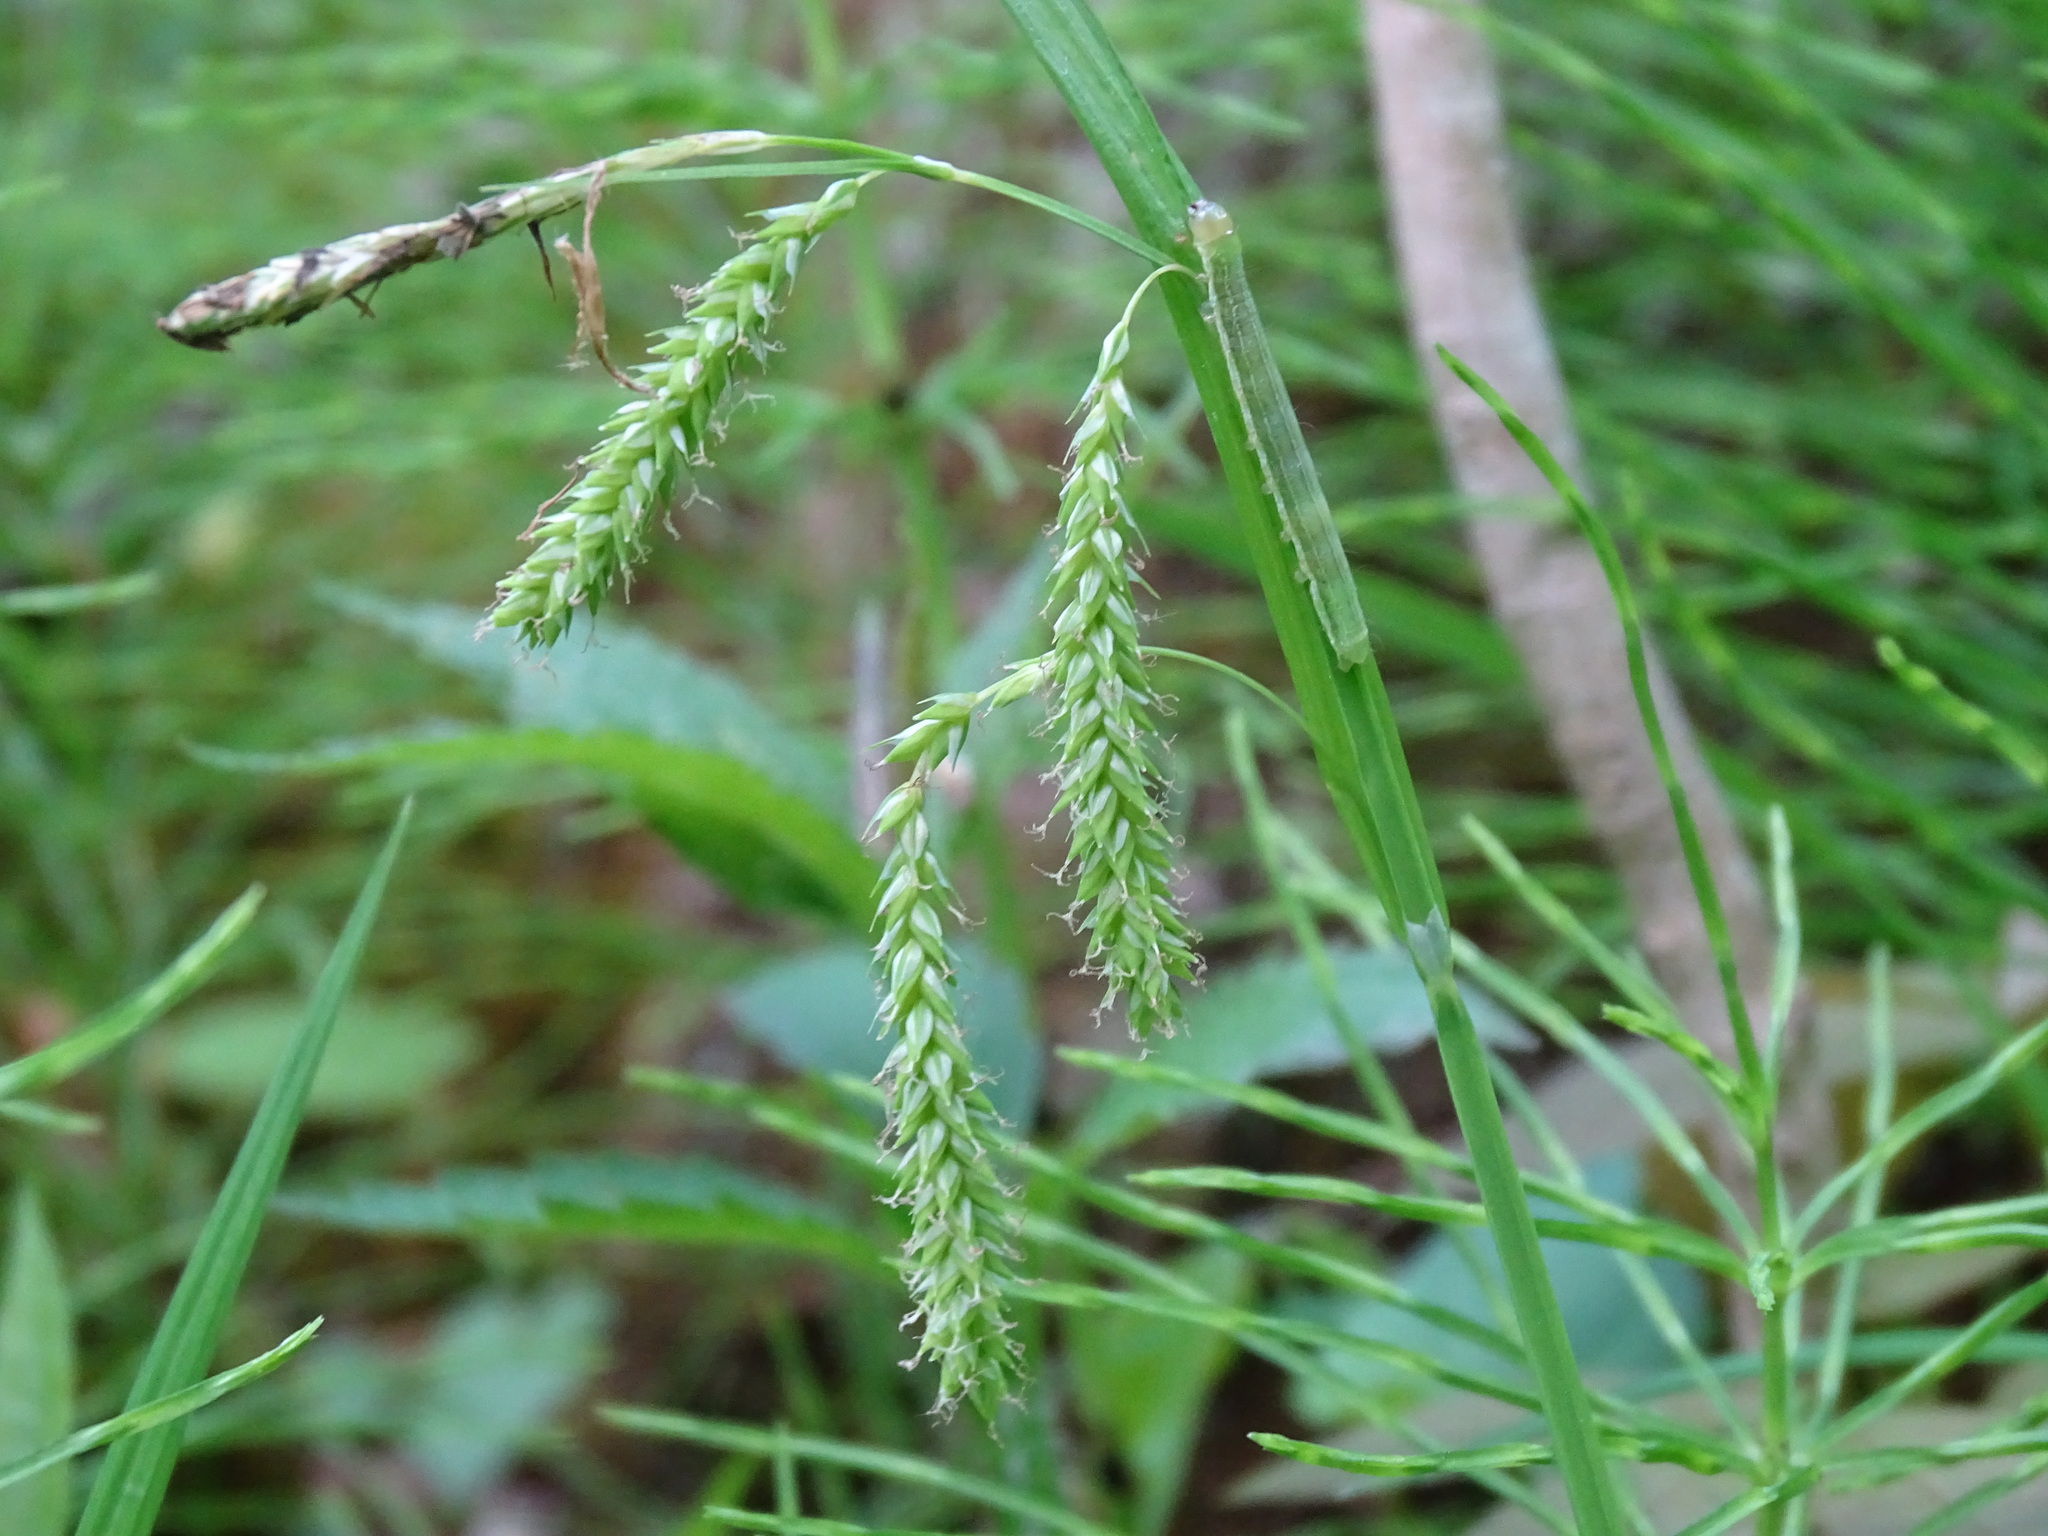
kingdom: Plantae
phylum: Tracheophyta
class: Liliopsida
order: Poales
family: Cyperaceae
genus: Carex
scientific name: Carex prasina
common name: Drooping sedge
